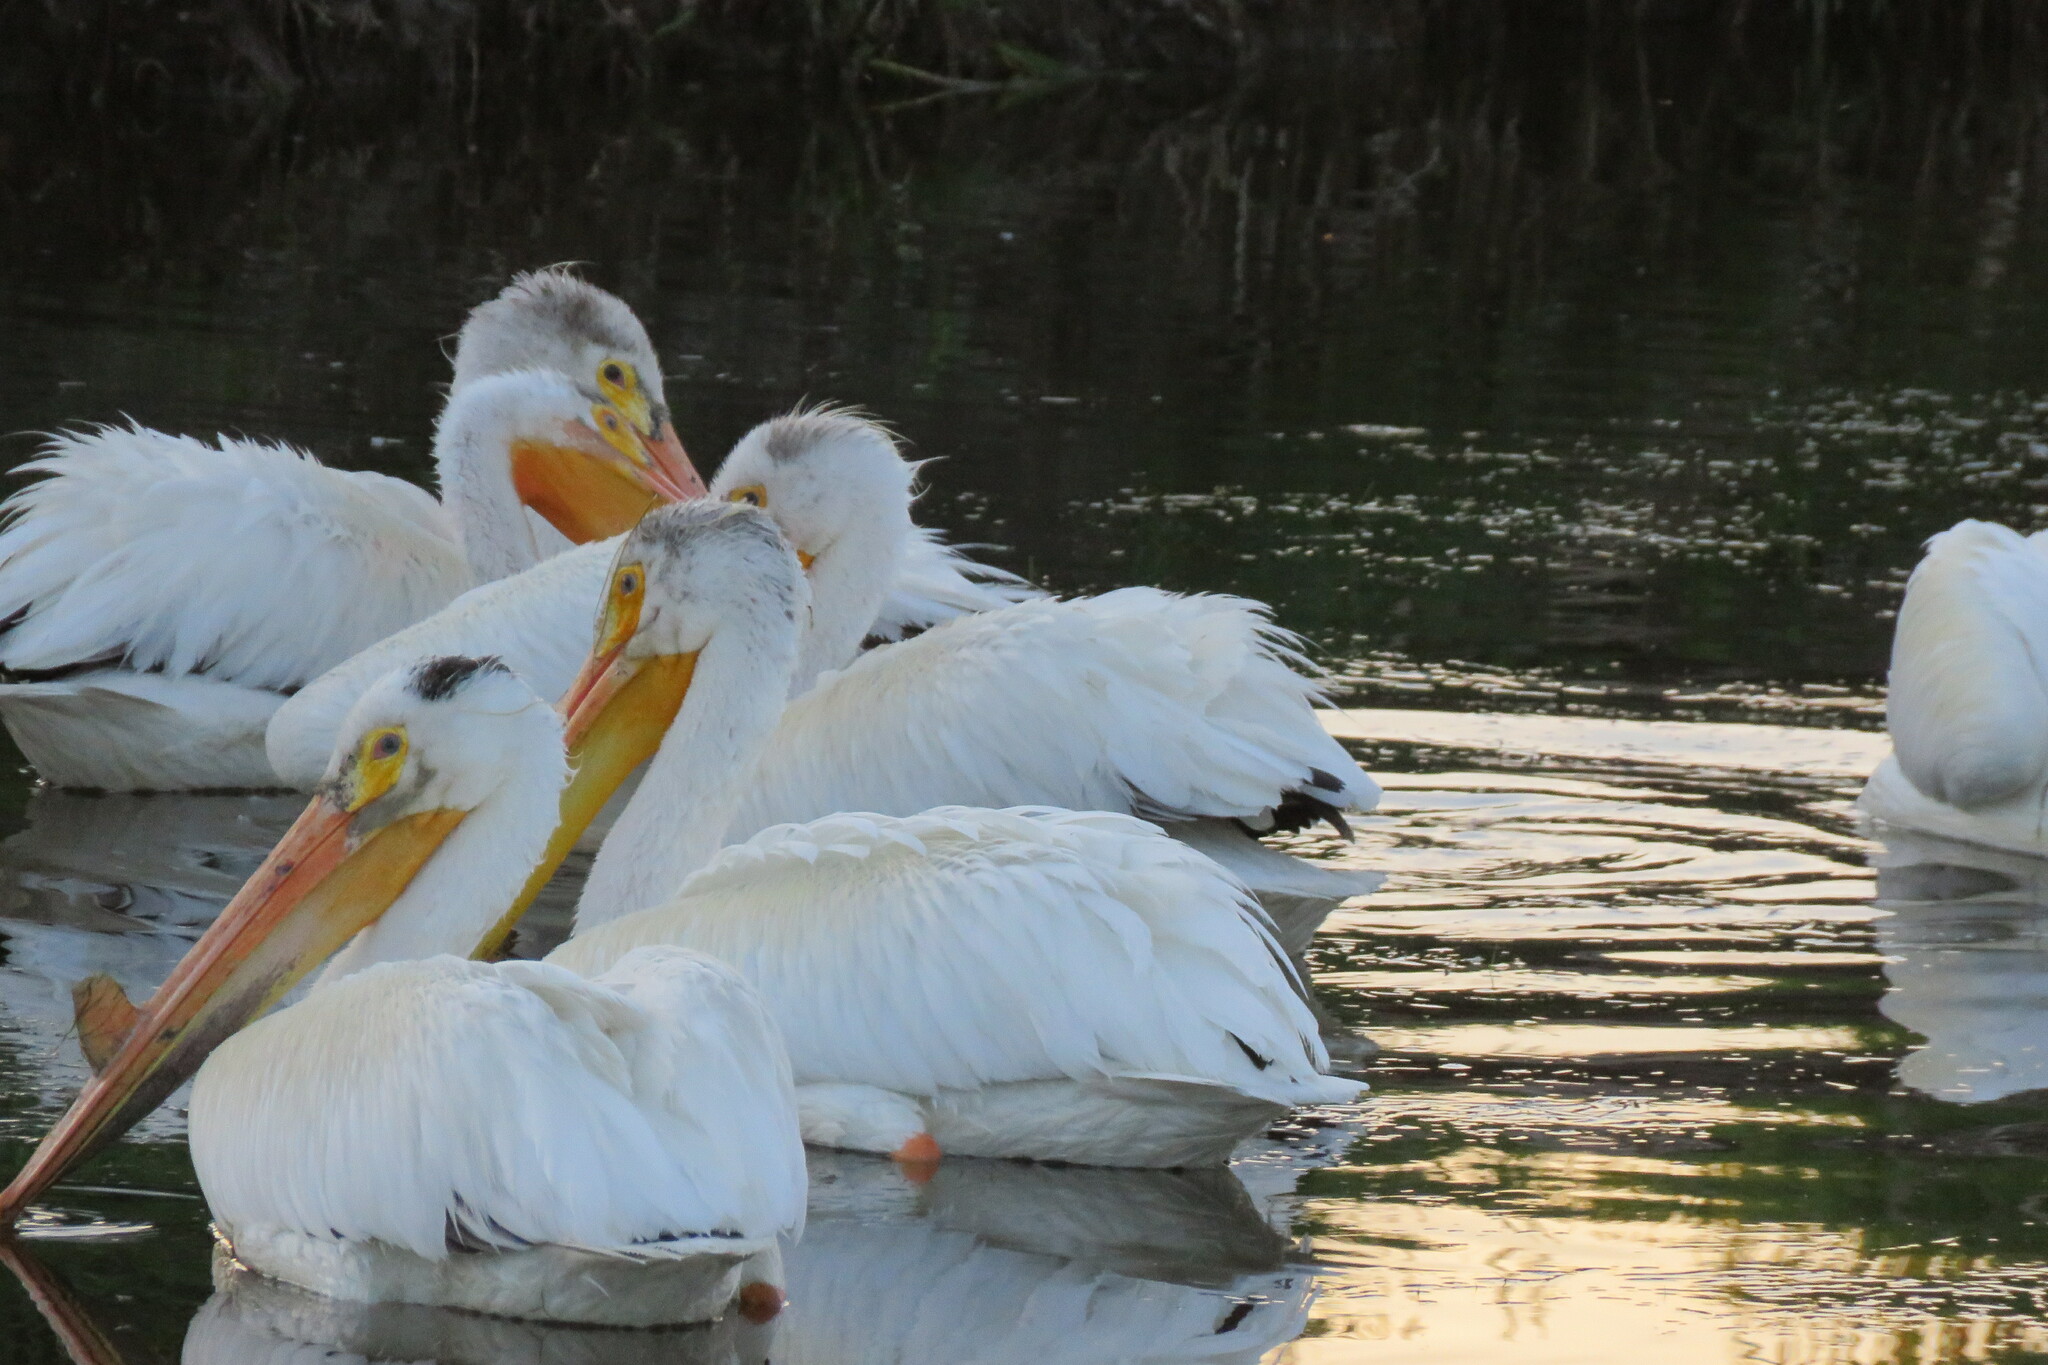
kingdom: Animalia
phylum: Chordata
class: Aves
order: Pelecaniformes
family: Pelecanidae
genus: Pelecanus
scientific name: Pelecanus erythrorhynchos
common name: American white pelican
